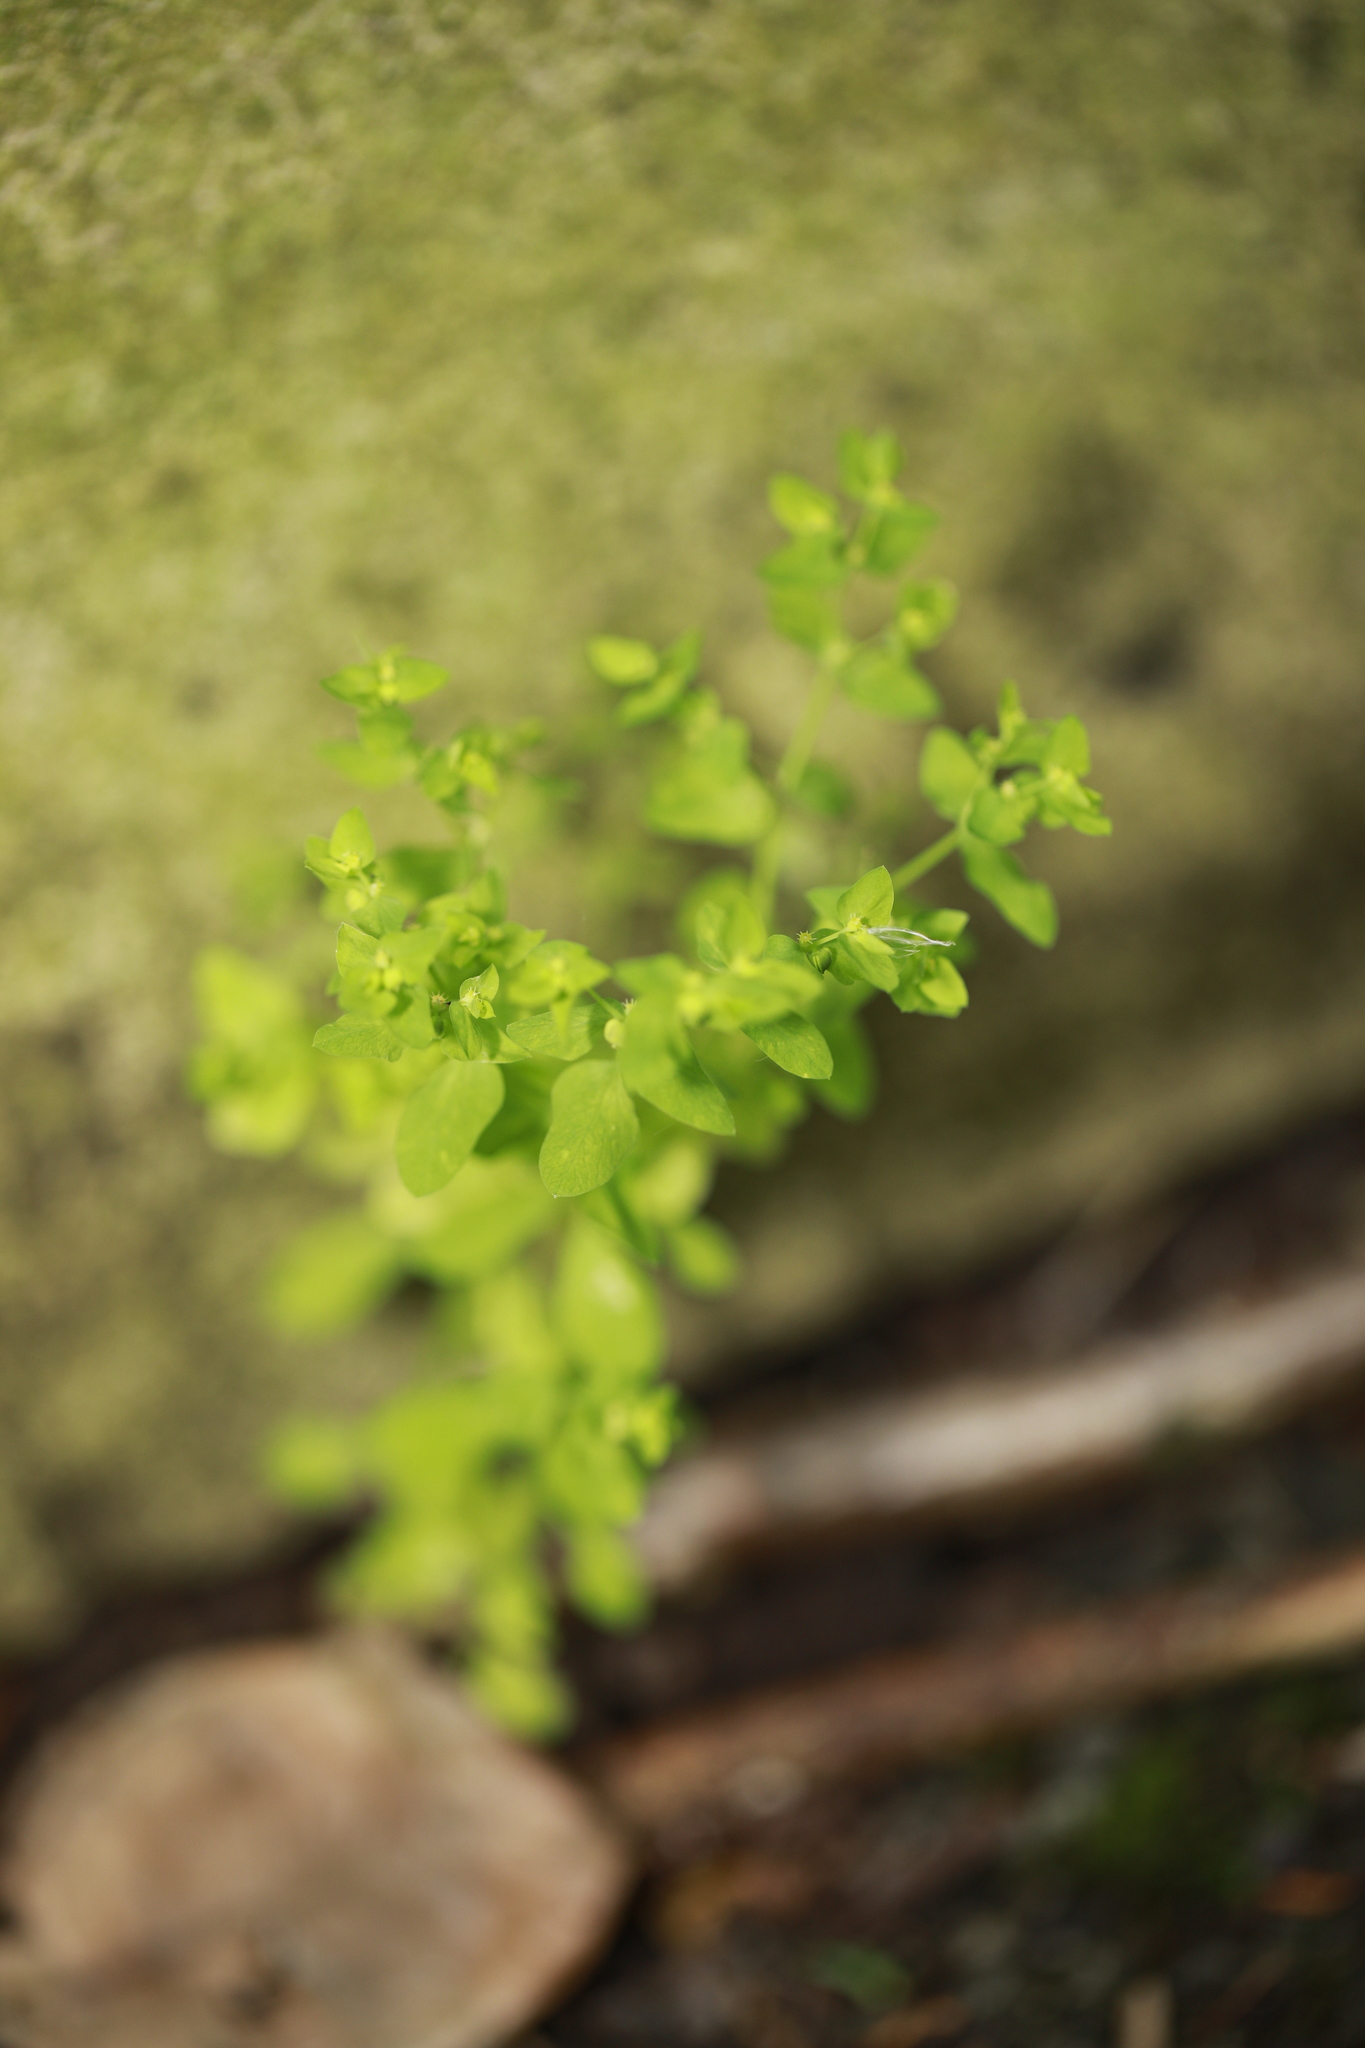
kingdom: Plantae
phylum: Tracheophyta
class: Magnoliopsida
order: Malpighiales
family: Euphorbiaceae
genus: Euphorbia
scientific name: Euphorbia peplus
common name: Petty spurge
